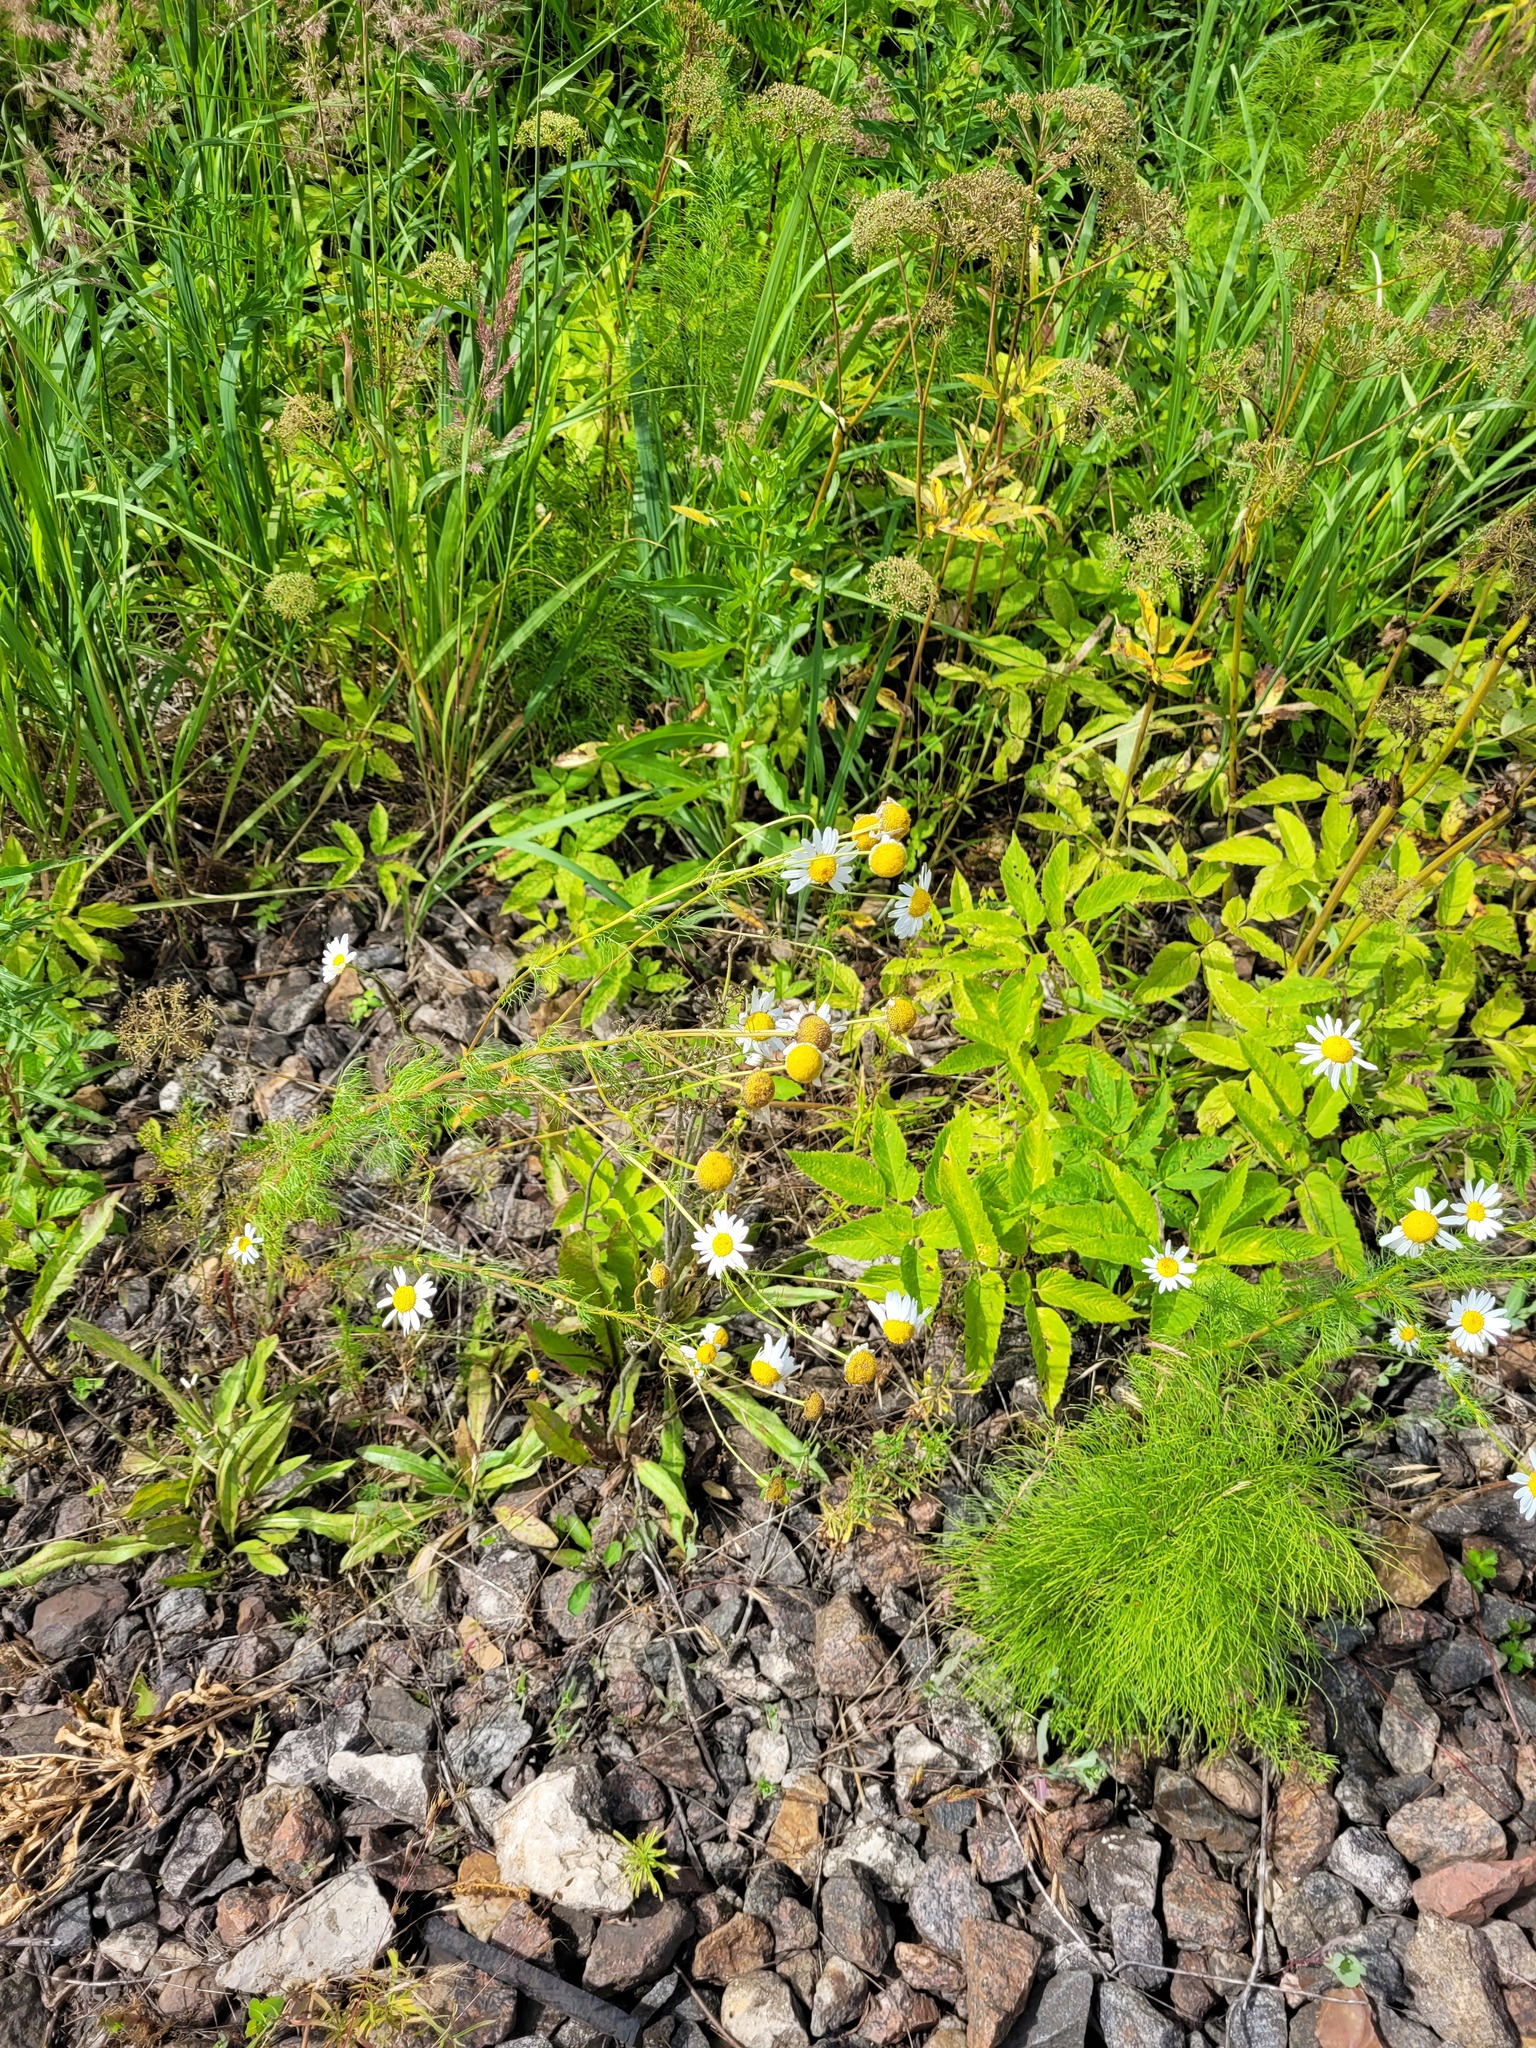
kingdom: Plantae
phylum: Tracheophyta
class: Magnoliopsida
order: Asterales
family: Asteraceae
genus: Tripleurospermum
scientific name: Tripleurospermum inodorum
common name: Scentless mayweed
